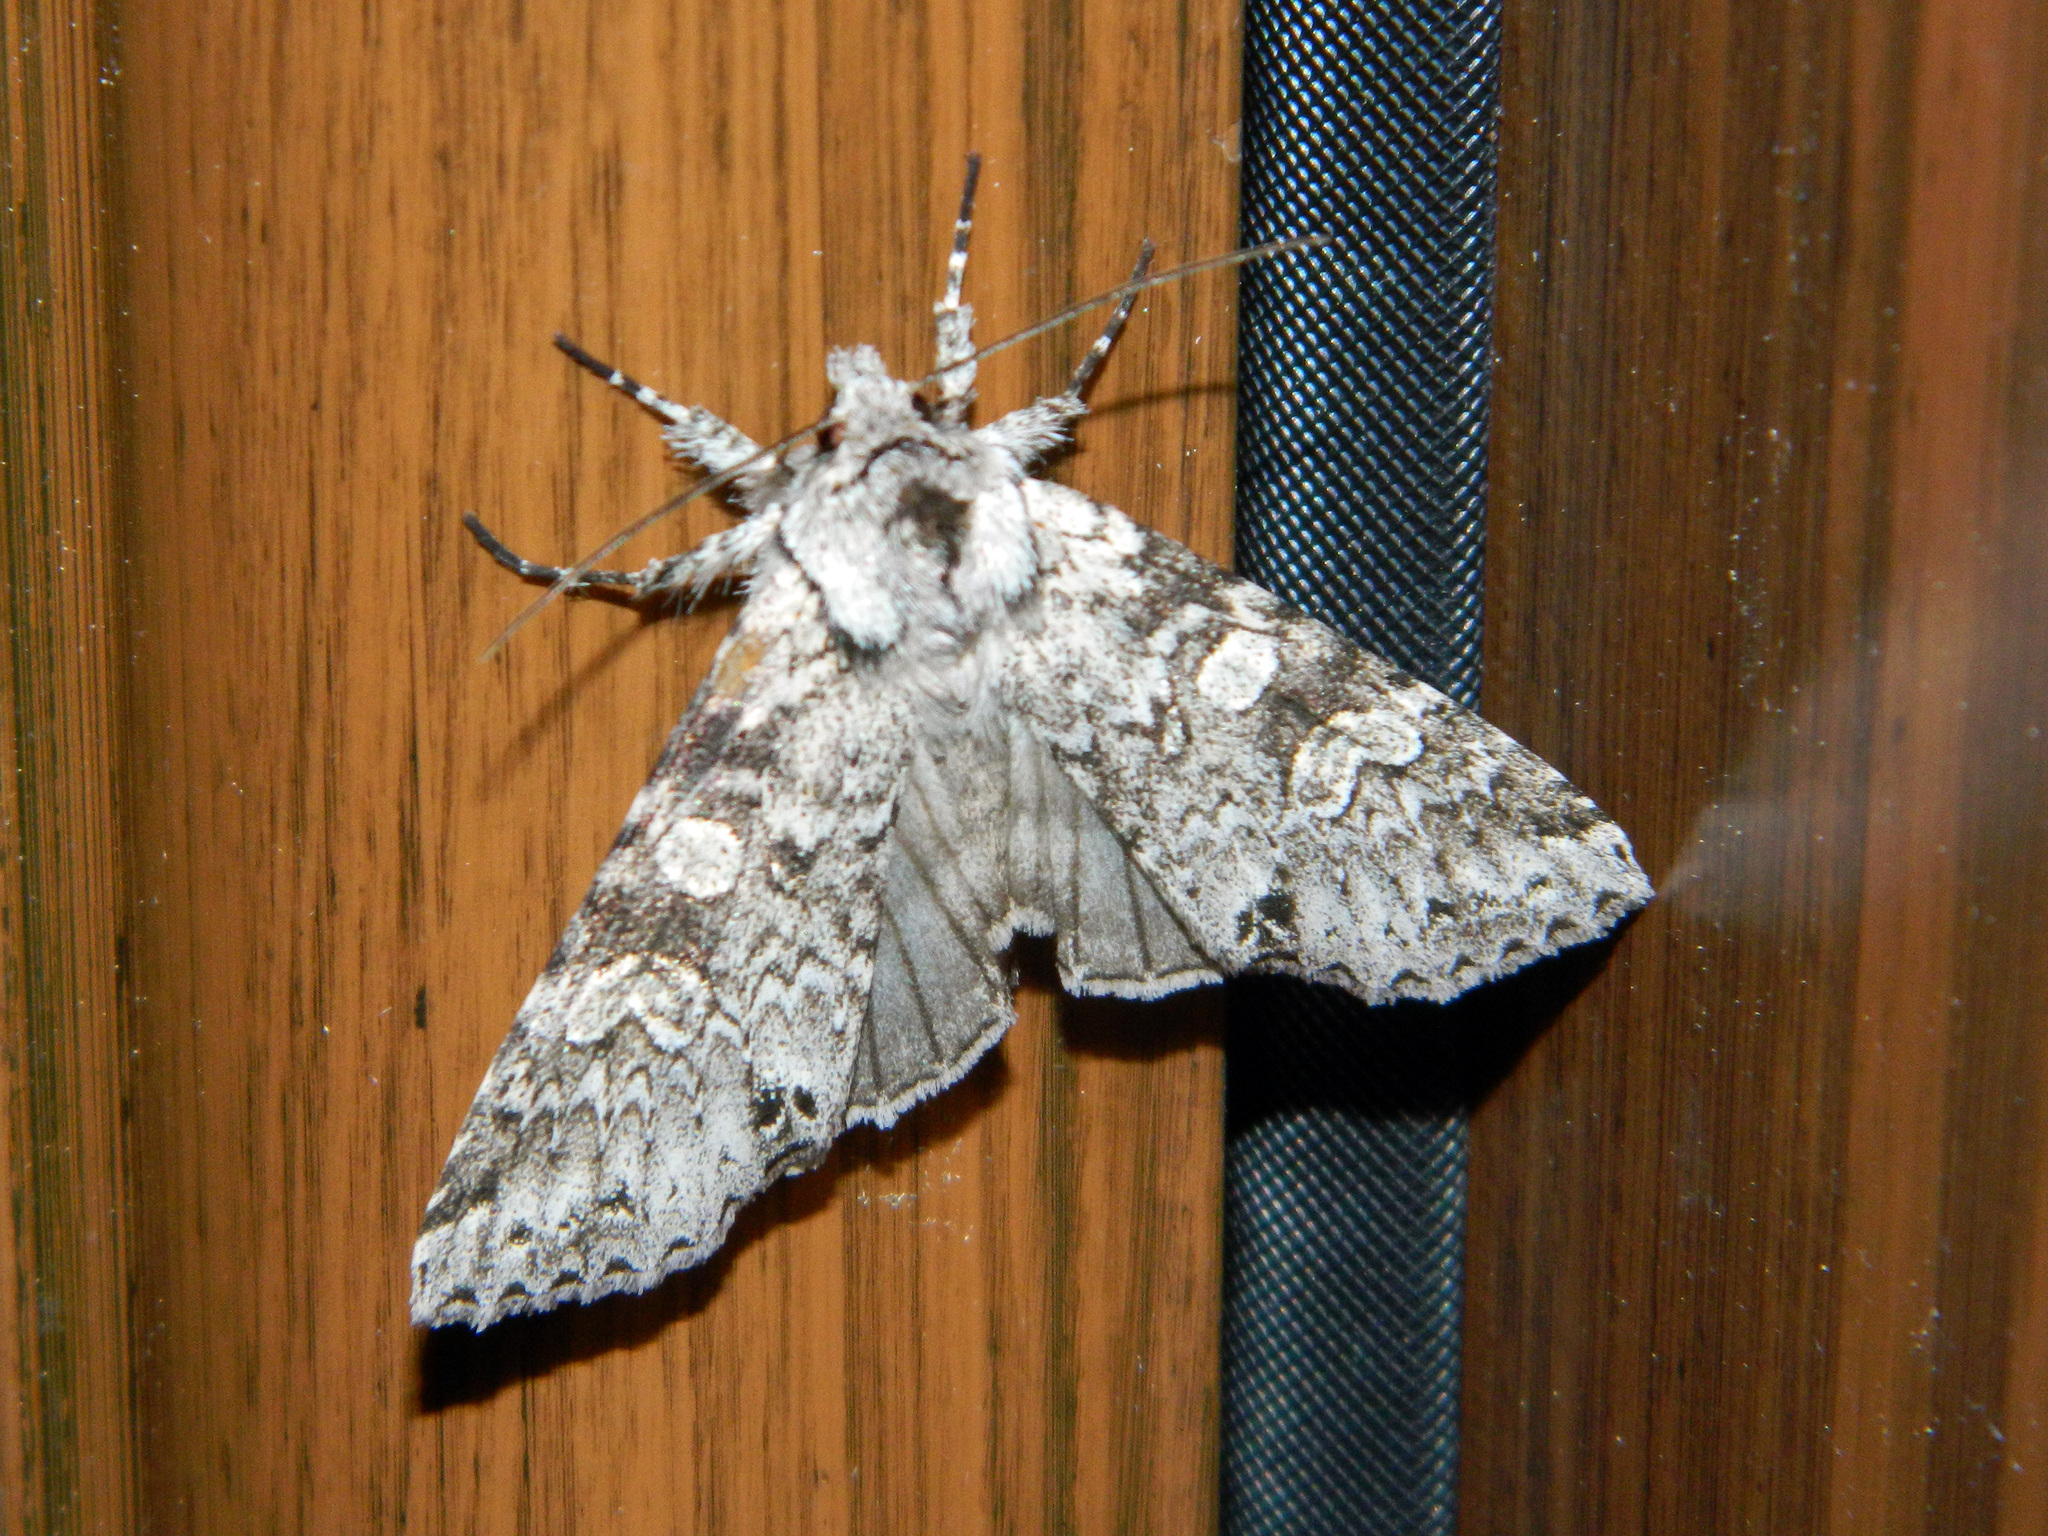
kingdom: Animalia
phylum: Arthropoda
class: Insecta
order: Lepidoptera
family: Noctuidae
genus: Polia
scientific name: Polia nimbosa
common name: Stormy arches
